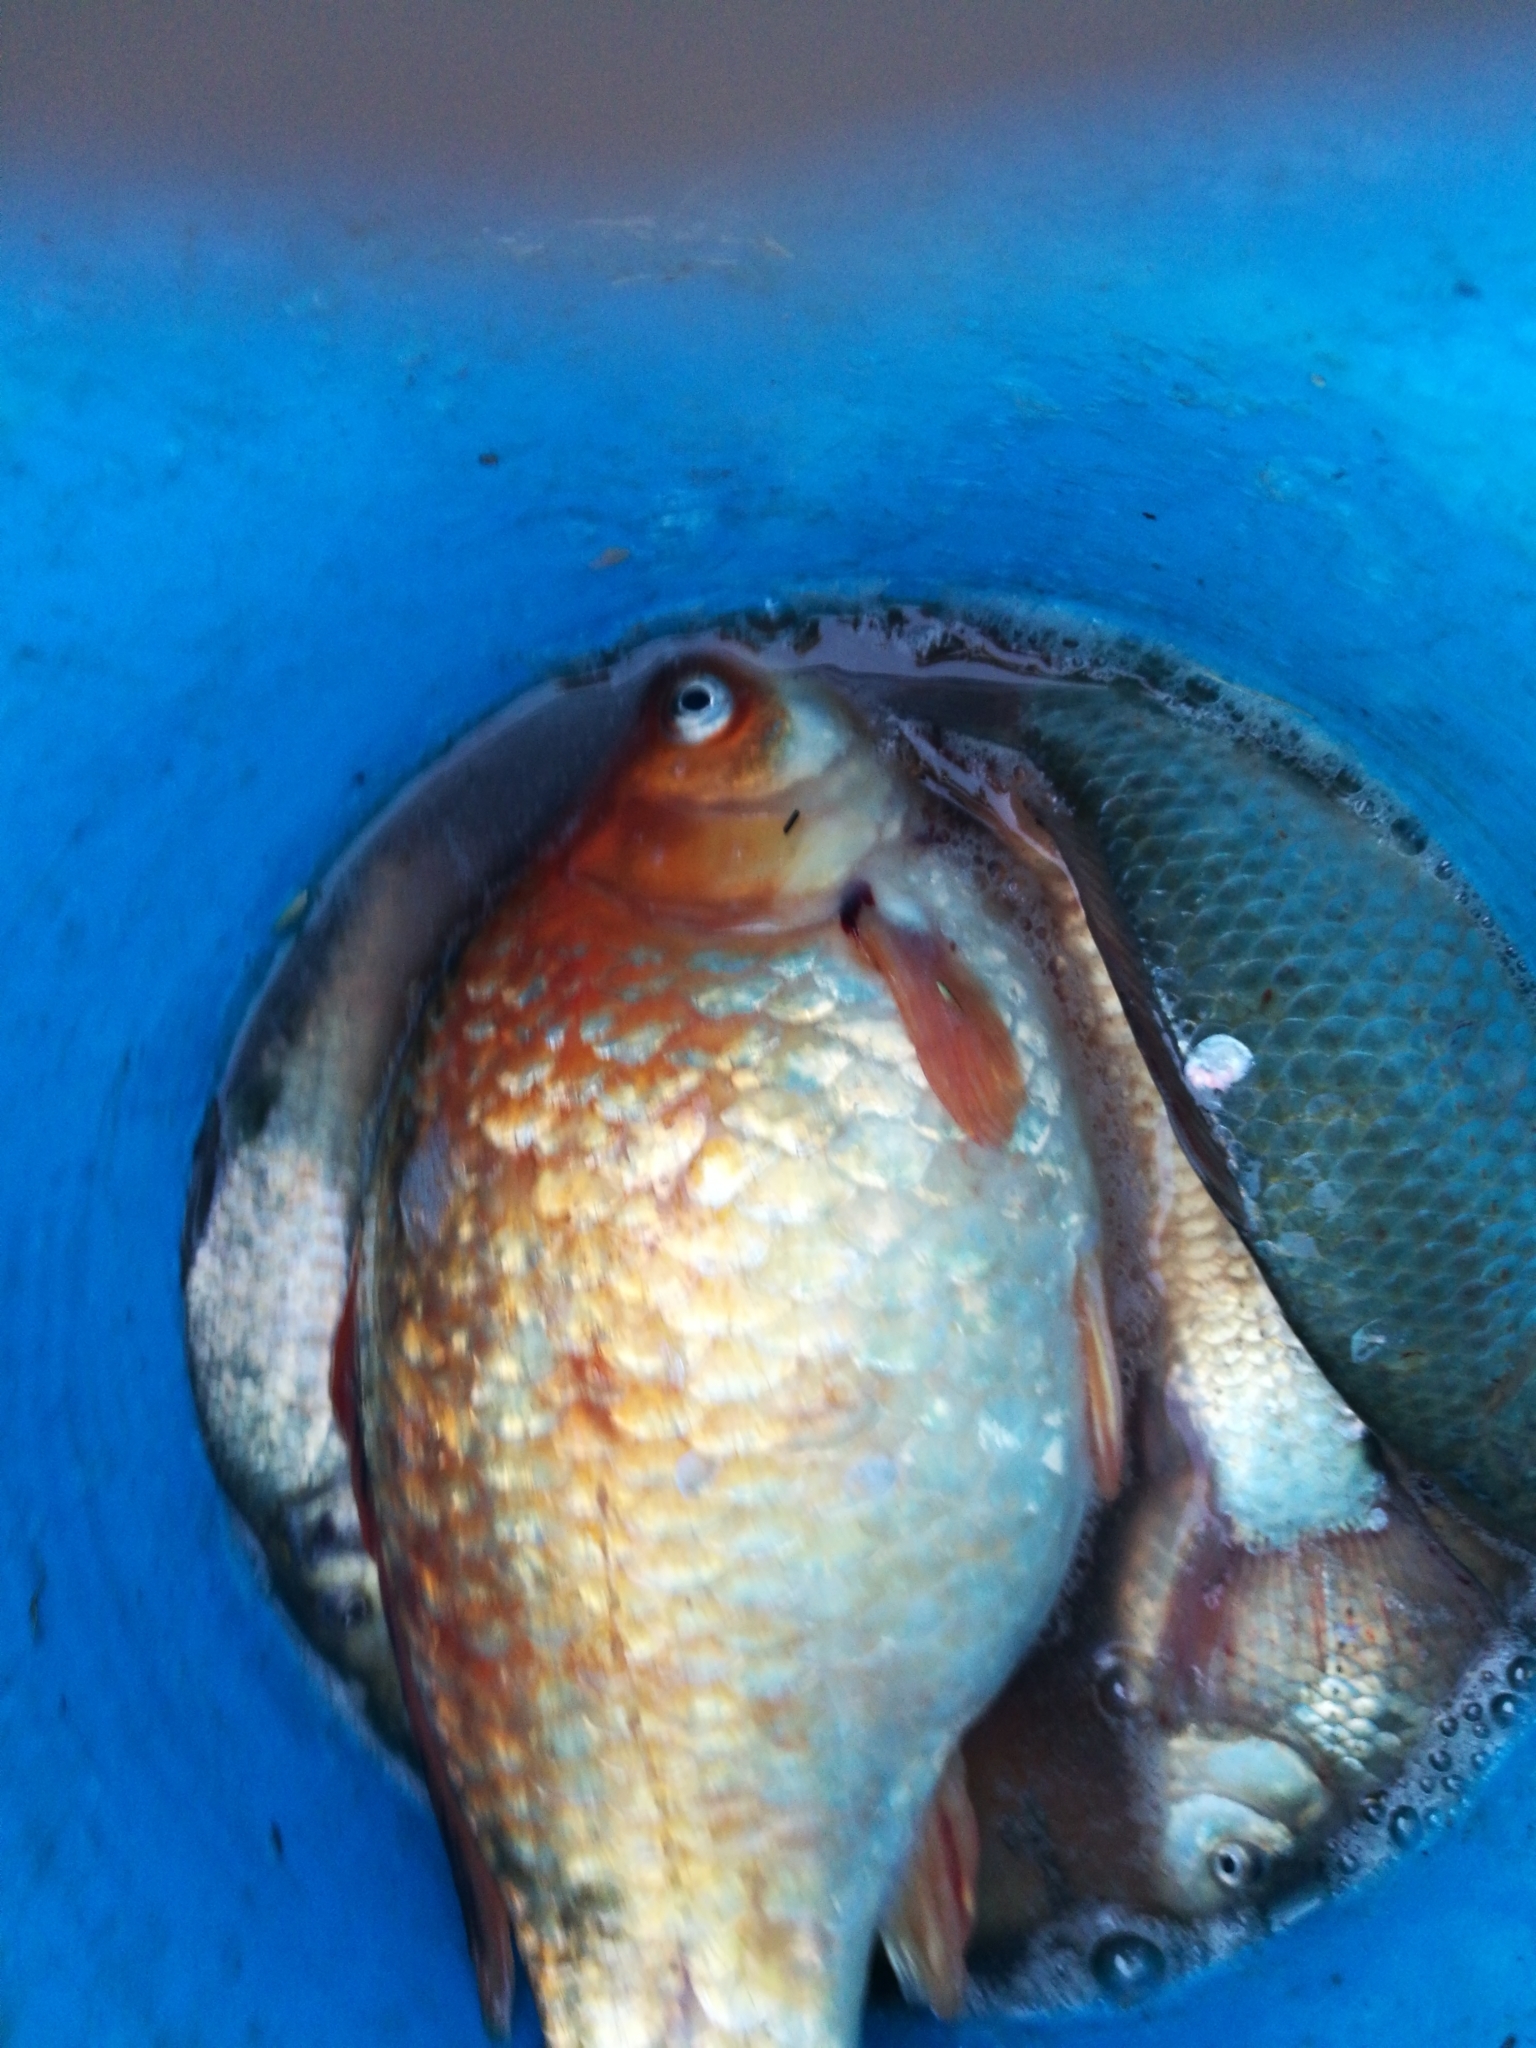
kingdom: Animalia
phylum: Chordata
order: Cypriniformes
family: Cyprinidae
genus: Carassius
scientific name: Carassius auratus
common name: Goldfish
